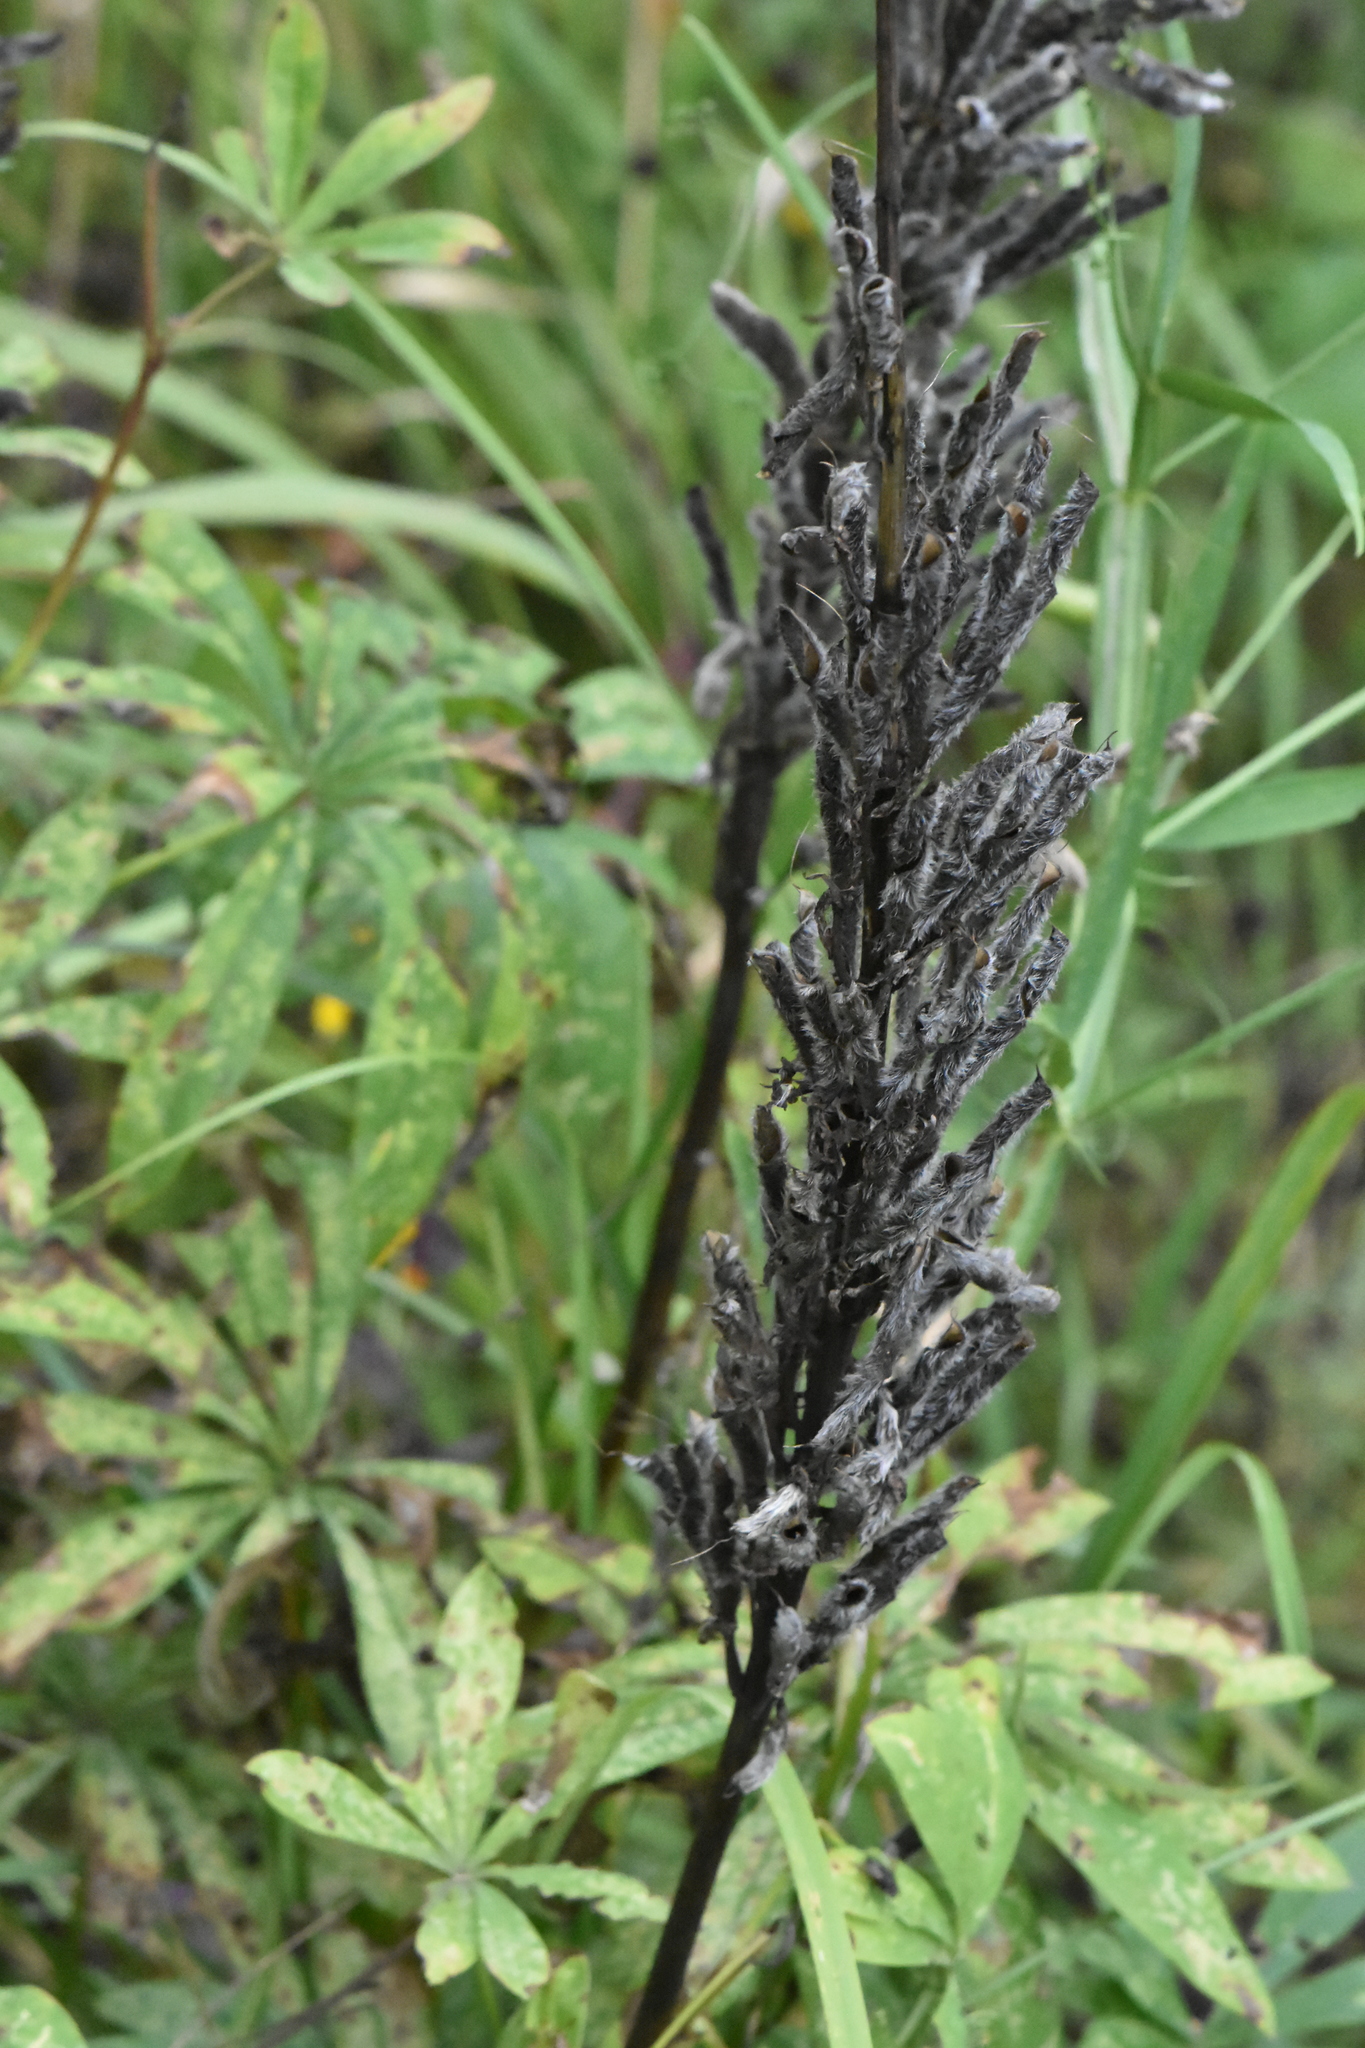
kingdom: Plantae
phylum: Tracheophyta
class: Magnoliopsida
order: Fabales
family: Fabaceae
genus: Lupinus
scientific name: Lupinus polyphyllus
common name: Garden lupin
